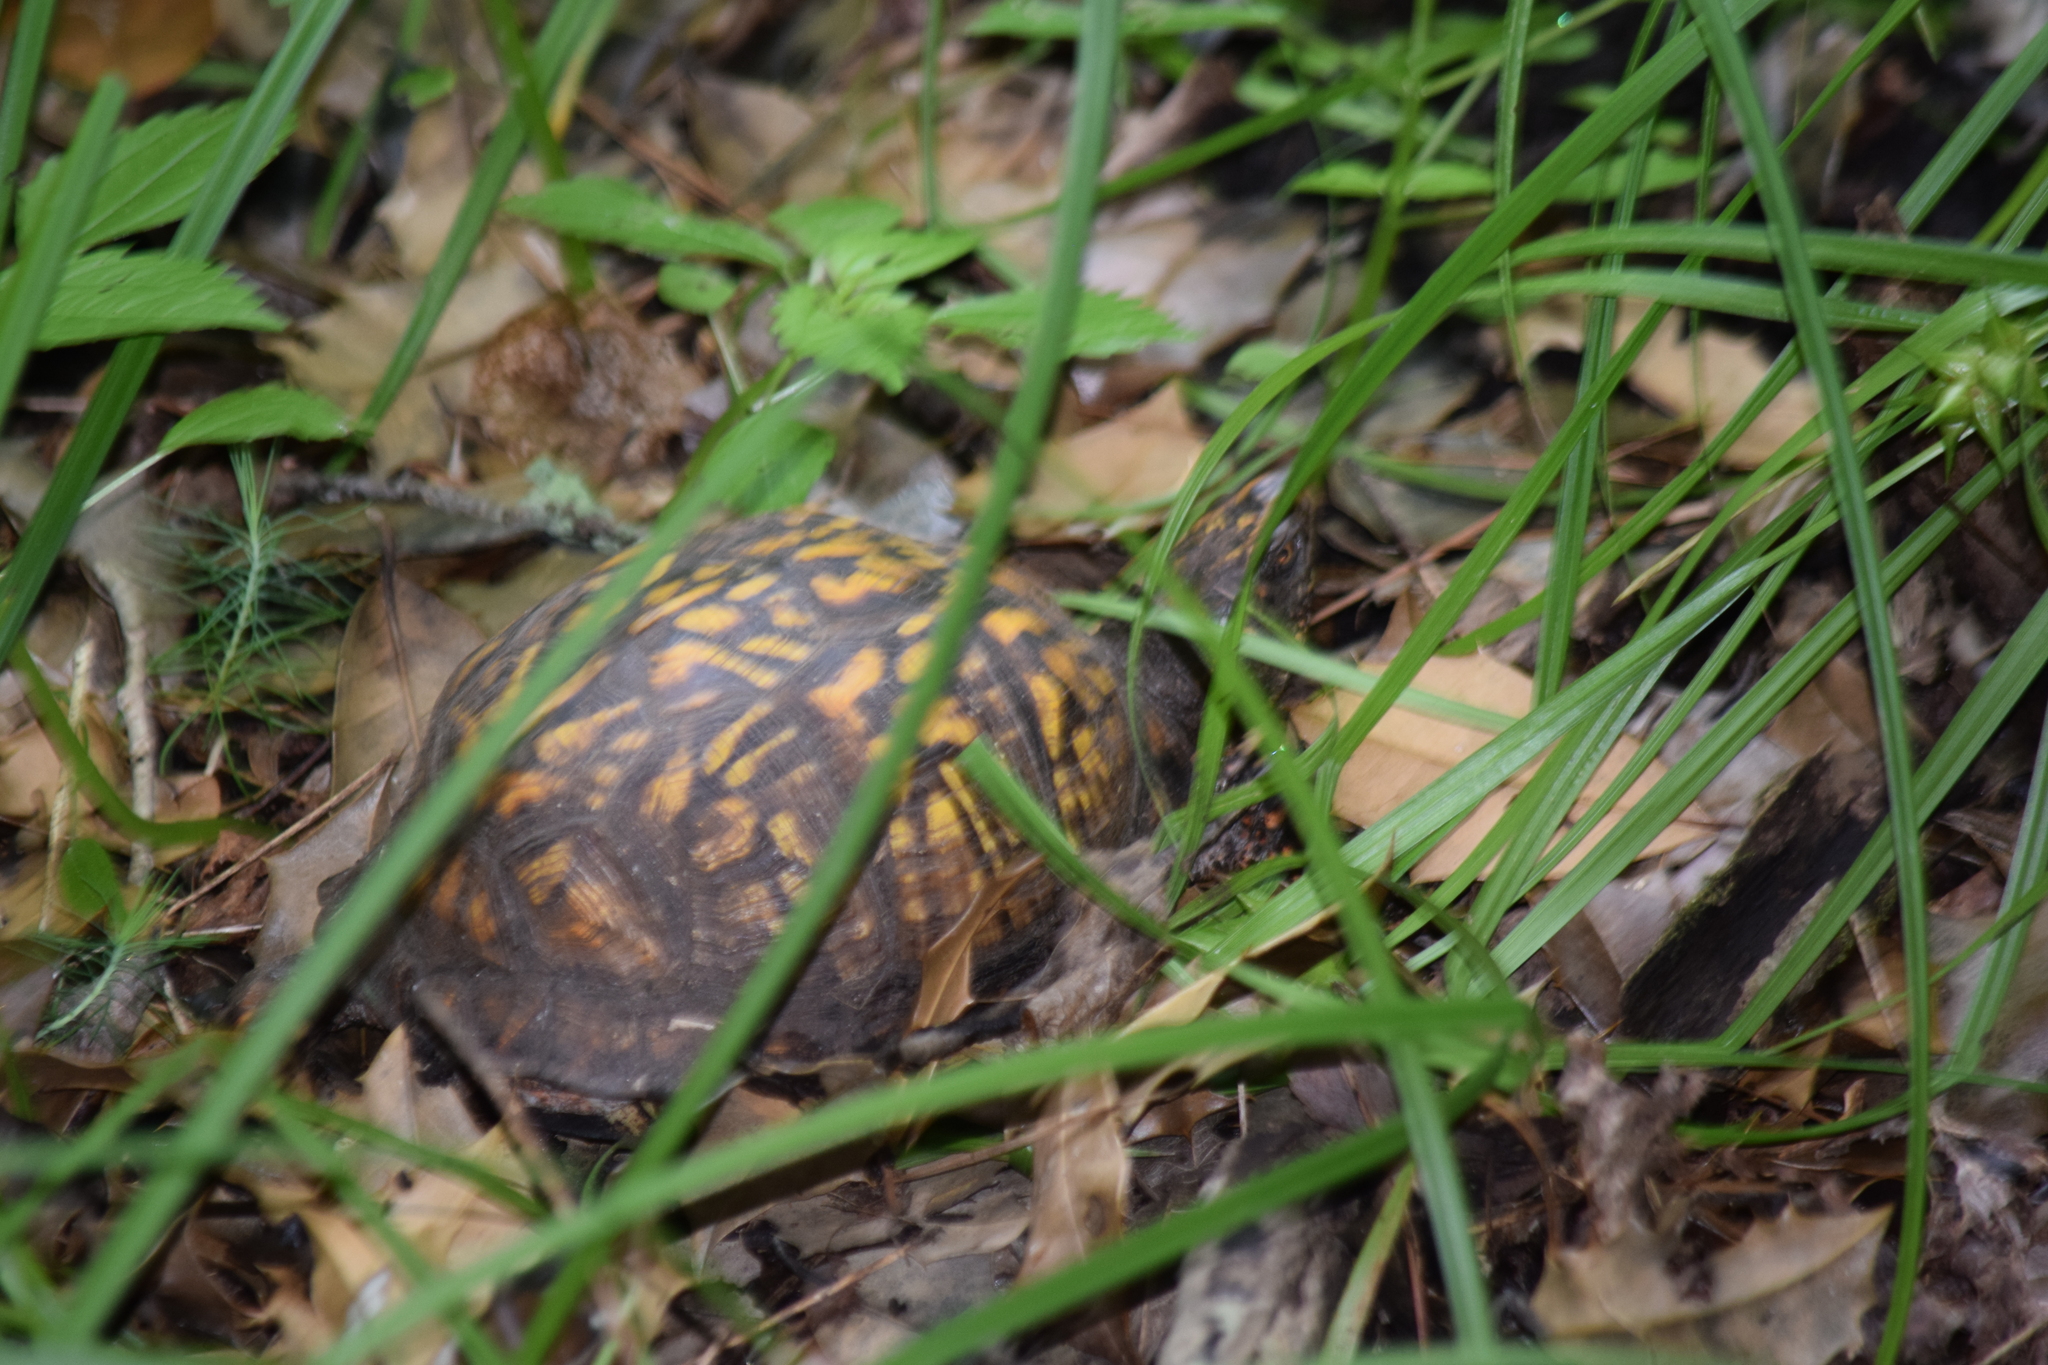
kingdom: Animalia
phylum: Chordata
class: Testudines
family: Emydidae
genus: Terrapene
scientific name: Terrapene carolina
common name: Common box turtle
